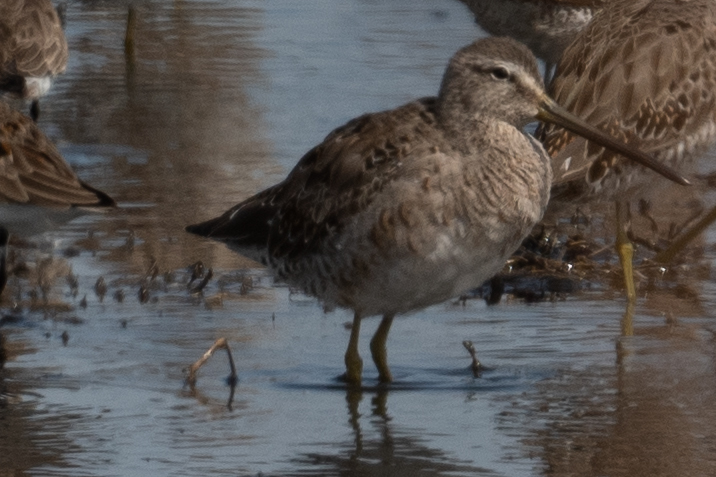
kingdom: Animalia
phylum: Chordata
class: Aves
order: Charadriiformes
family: Scolopacidae
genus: Limnodromus
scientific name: Limnodromus scolopaceus
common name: Long-billed dowitcher
